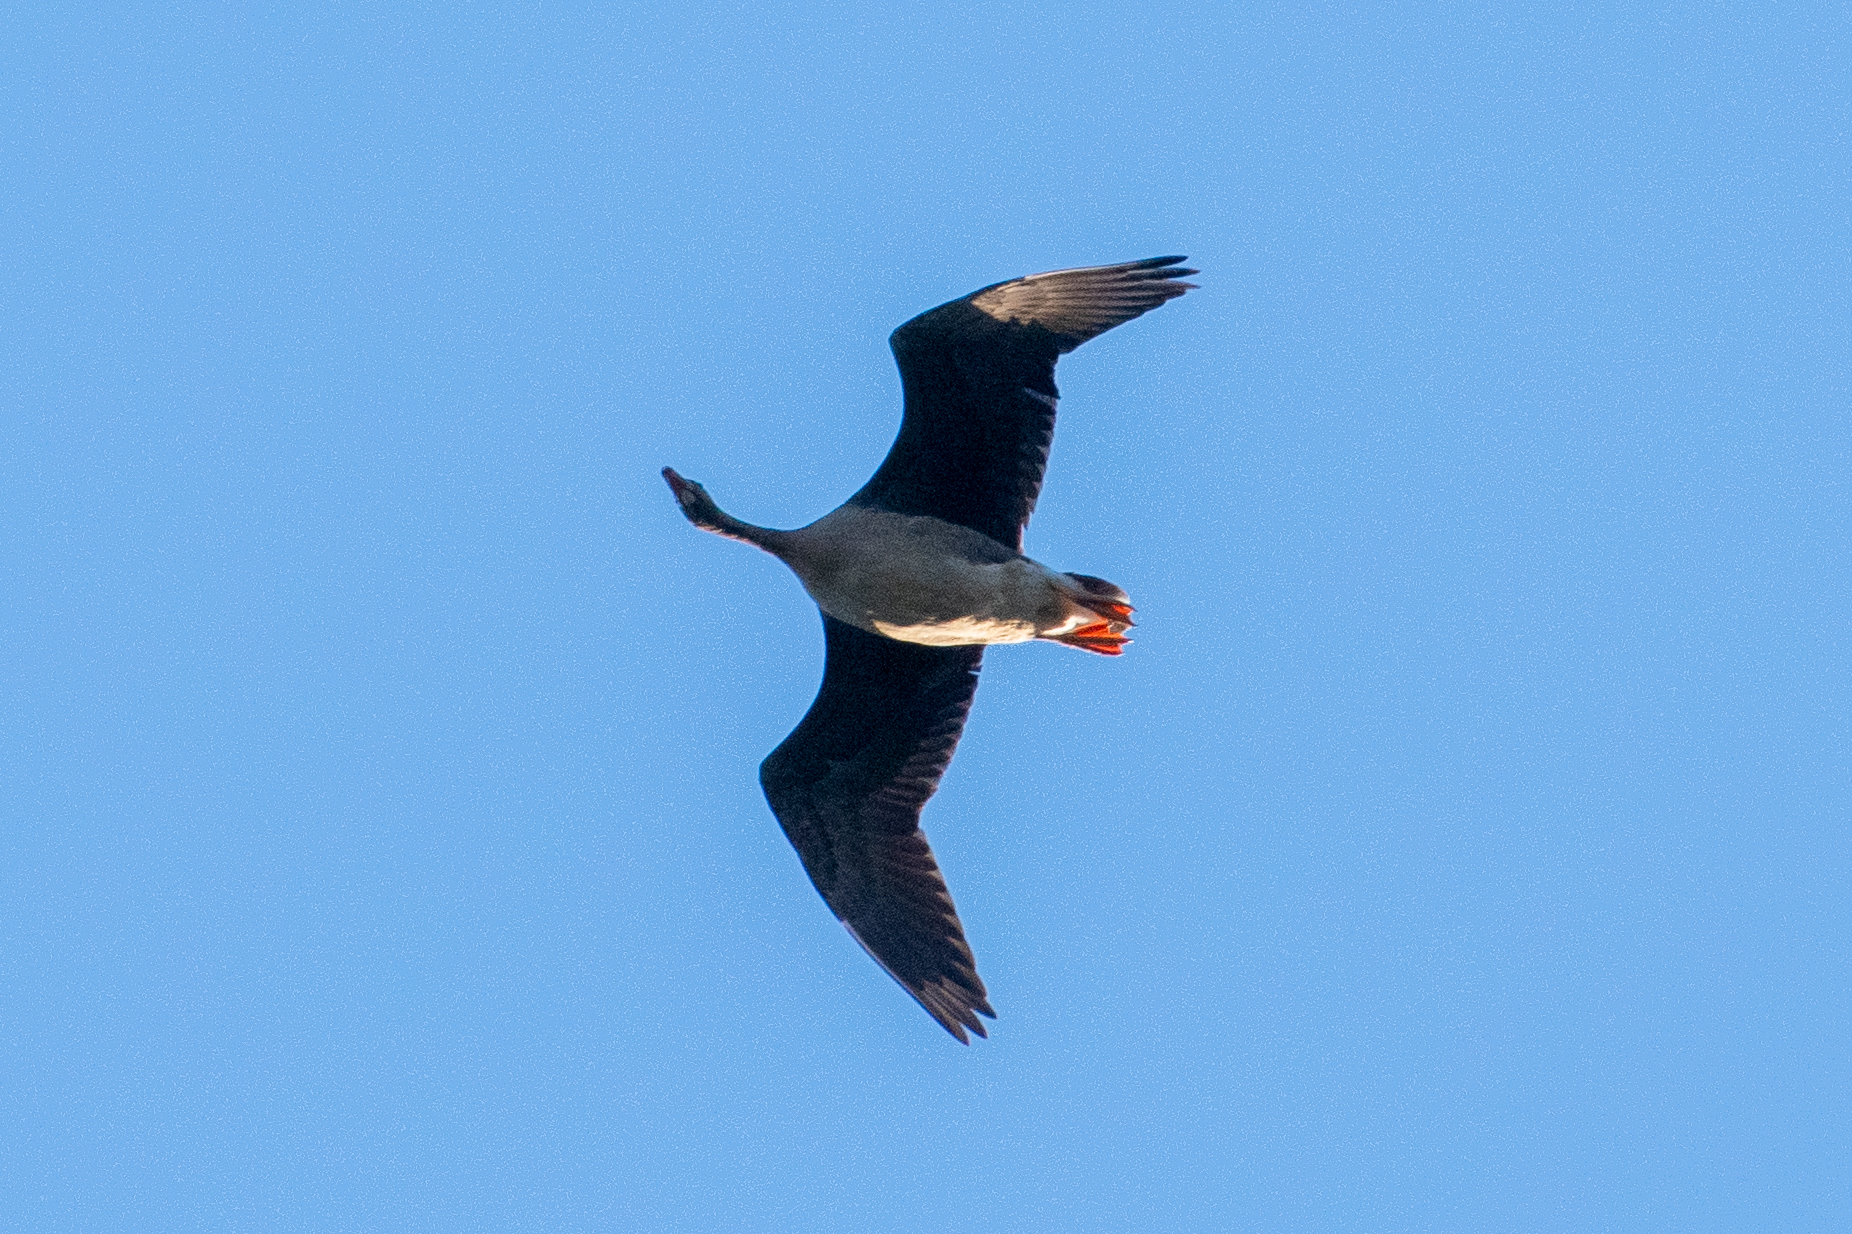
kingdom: Animalia
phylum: Chordata
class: Aves
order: Anseriformes
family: Anatidae
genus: Anser
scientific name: Anser albifrons
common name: Greater white-fronted goose
